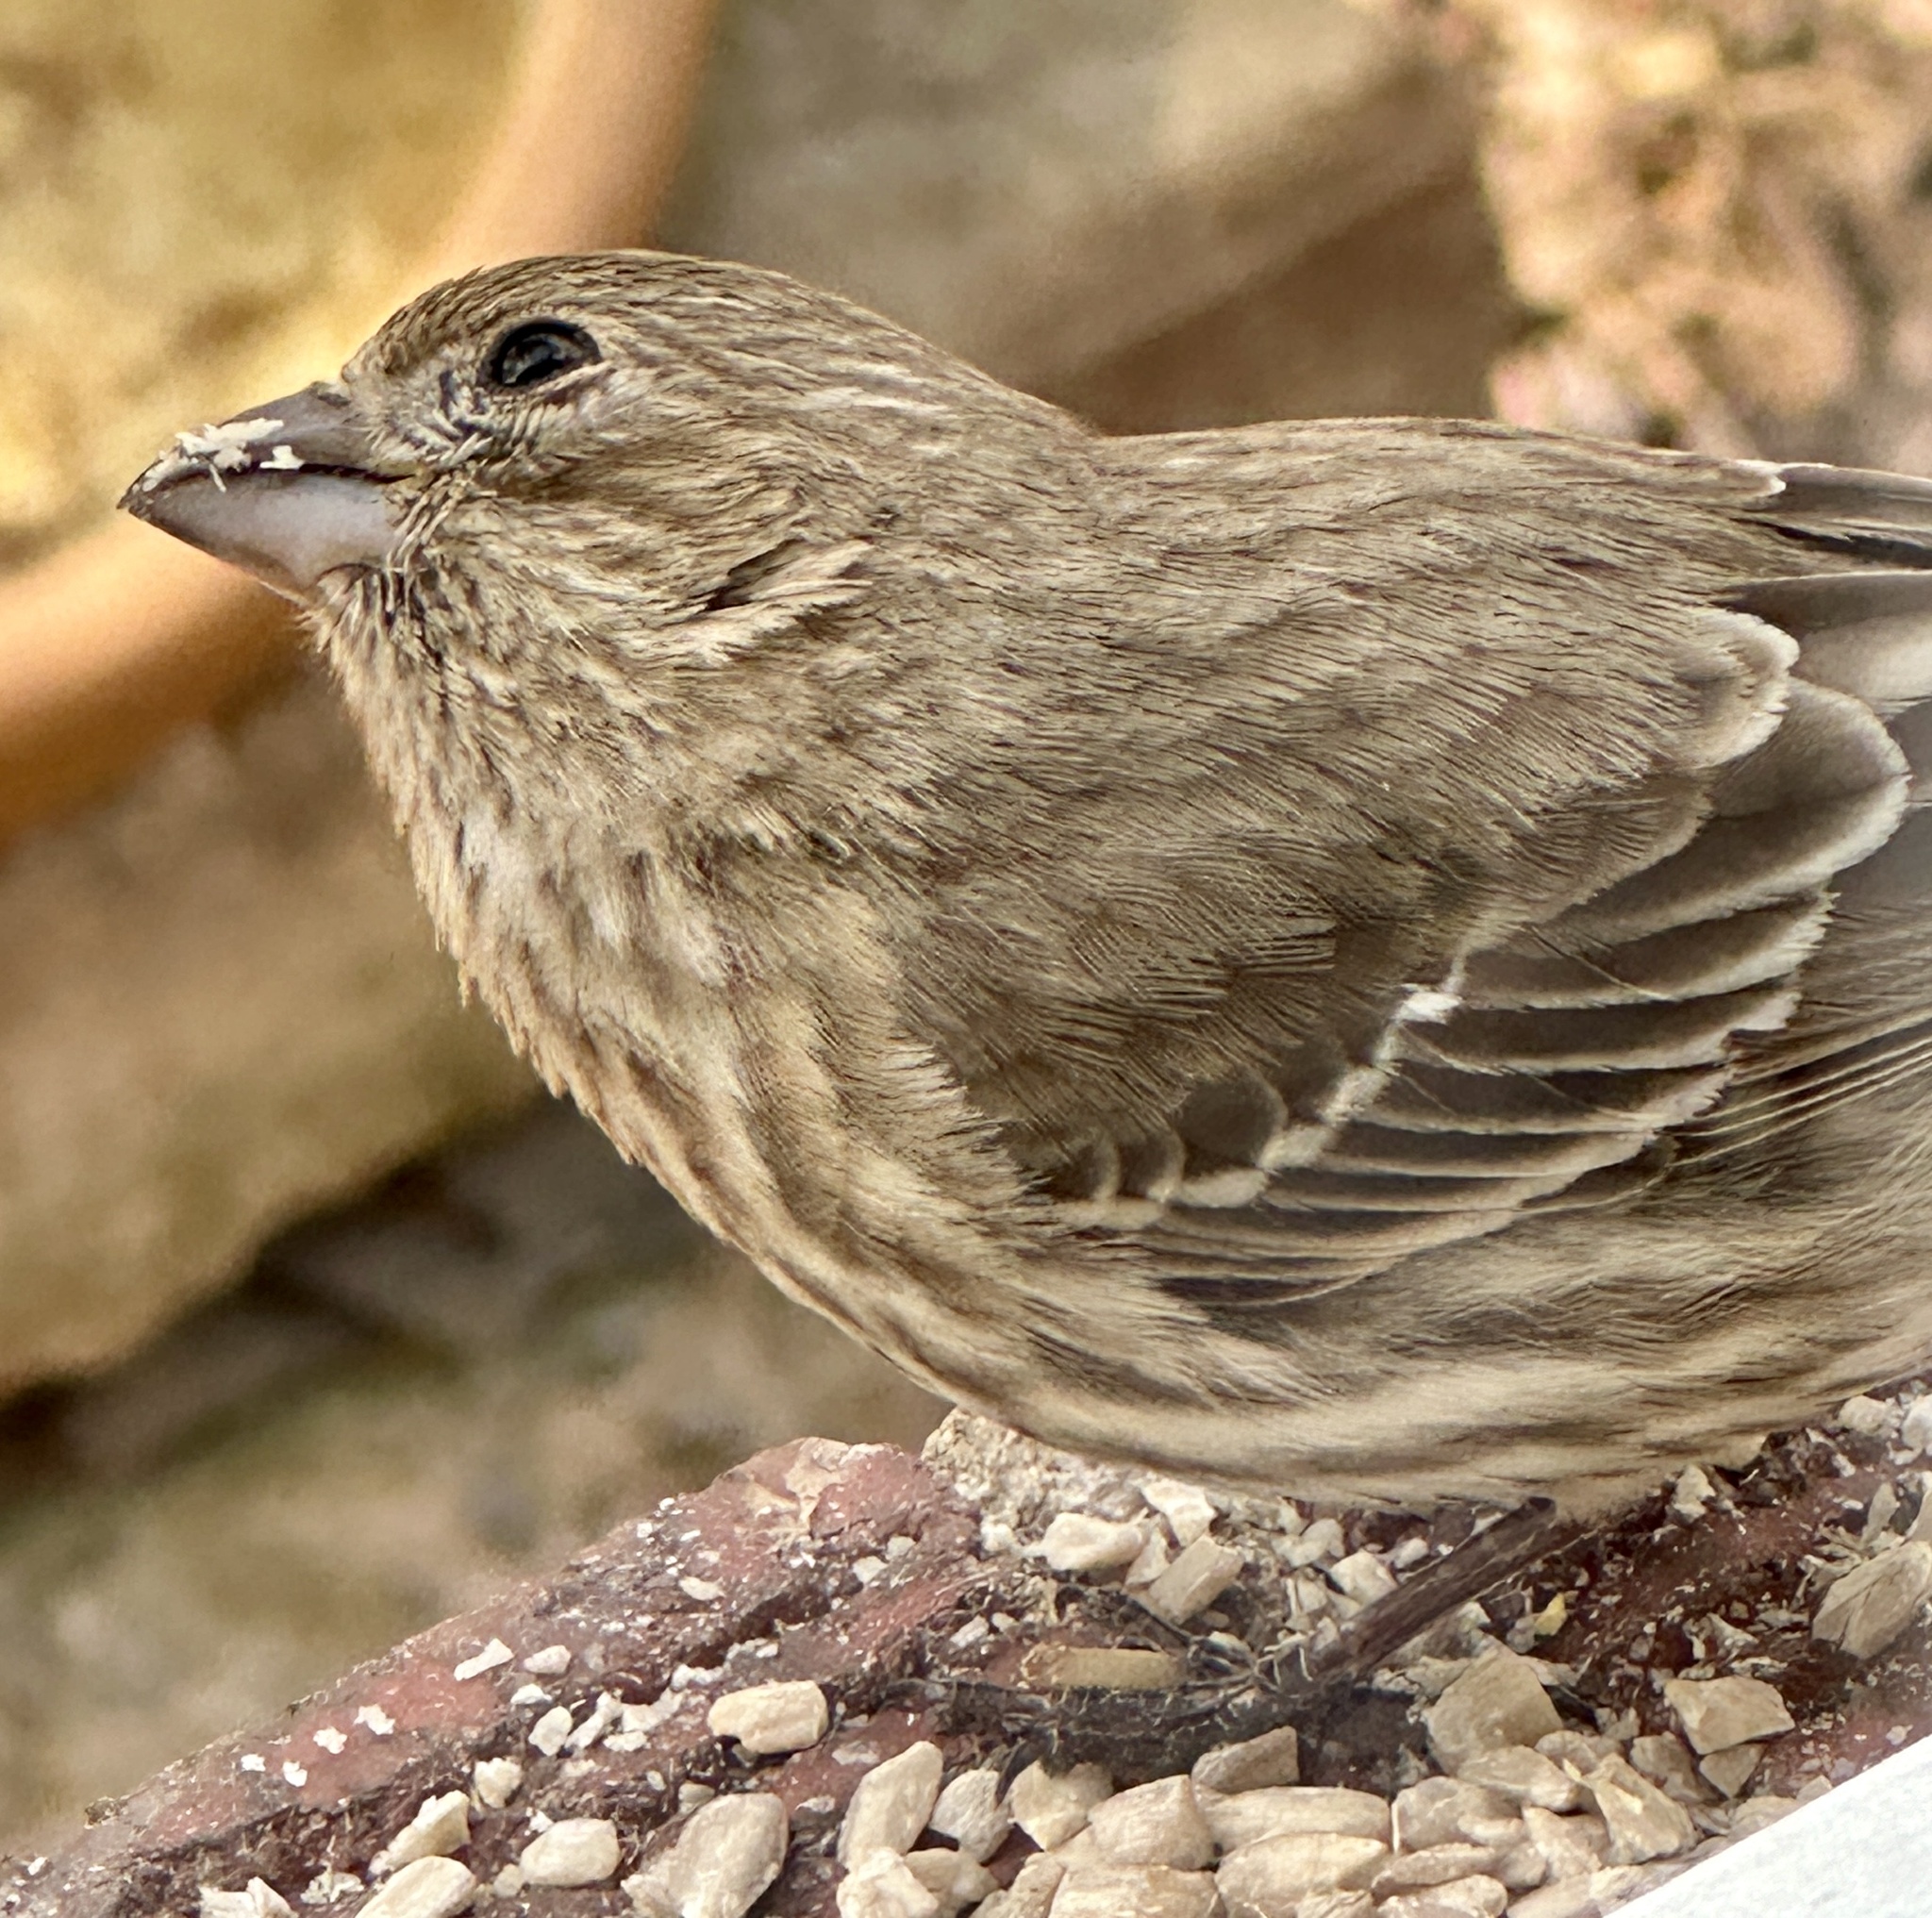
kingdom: Animalia
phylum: Chordata
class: Aves
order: Passeriformes
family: Fringillidae
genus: Haemorhous
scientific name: Haemorhous mexicanus
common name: House finch
